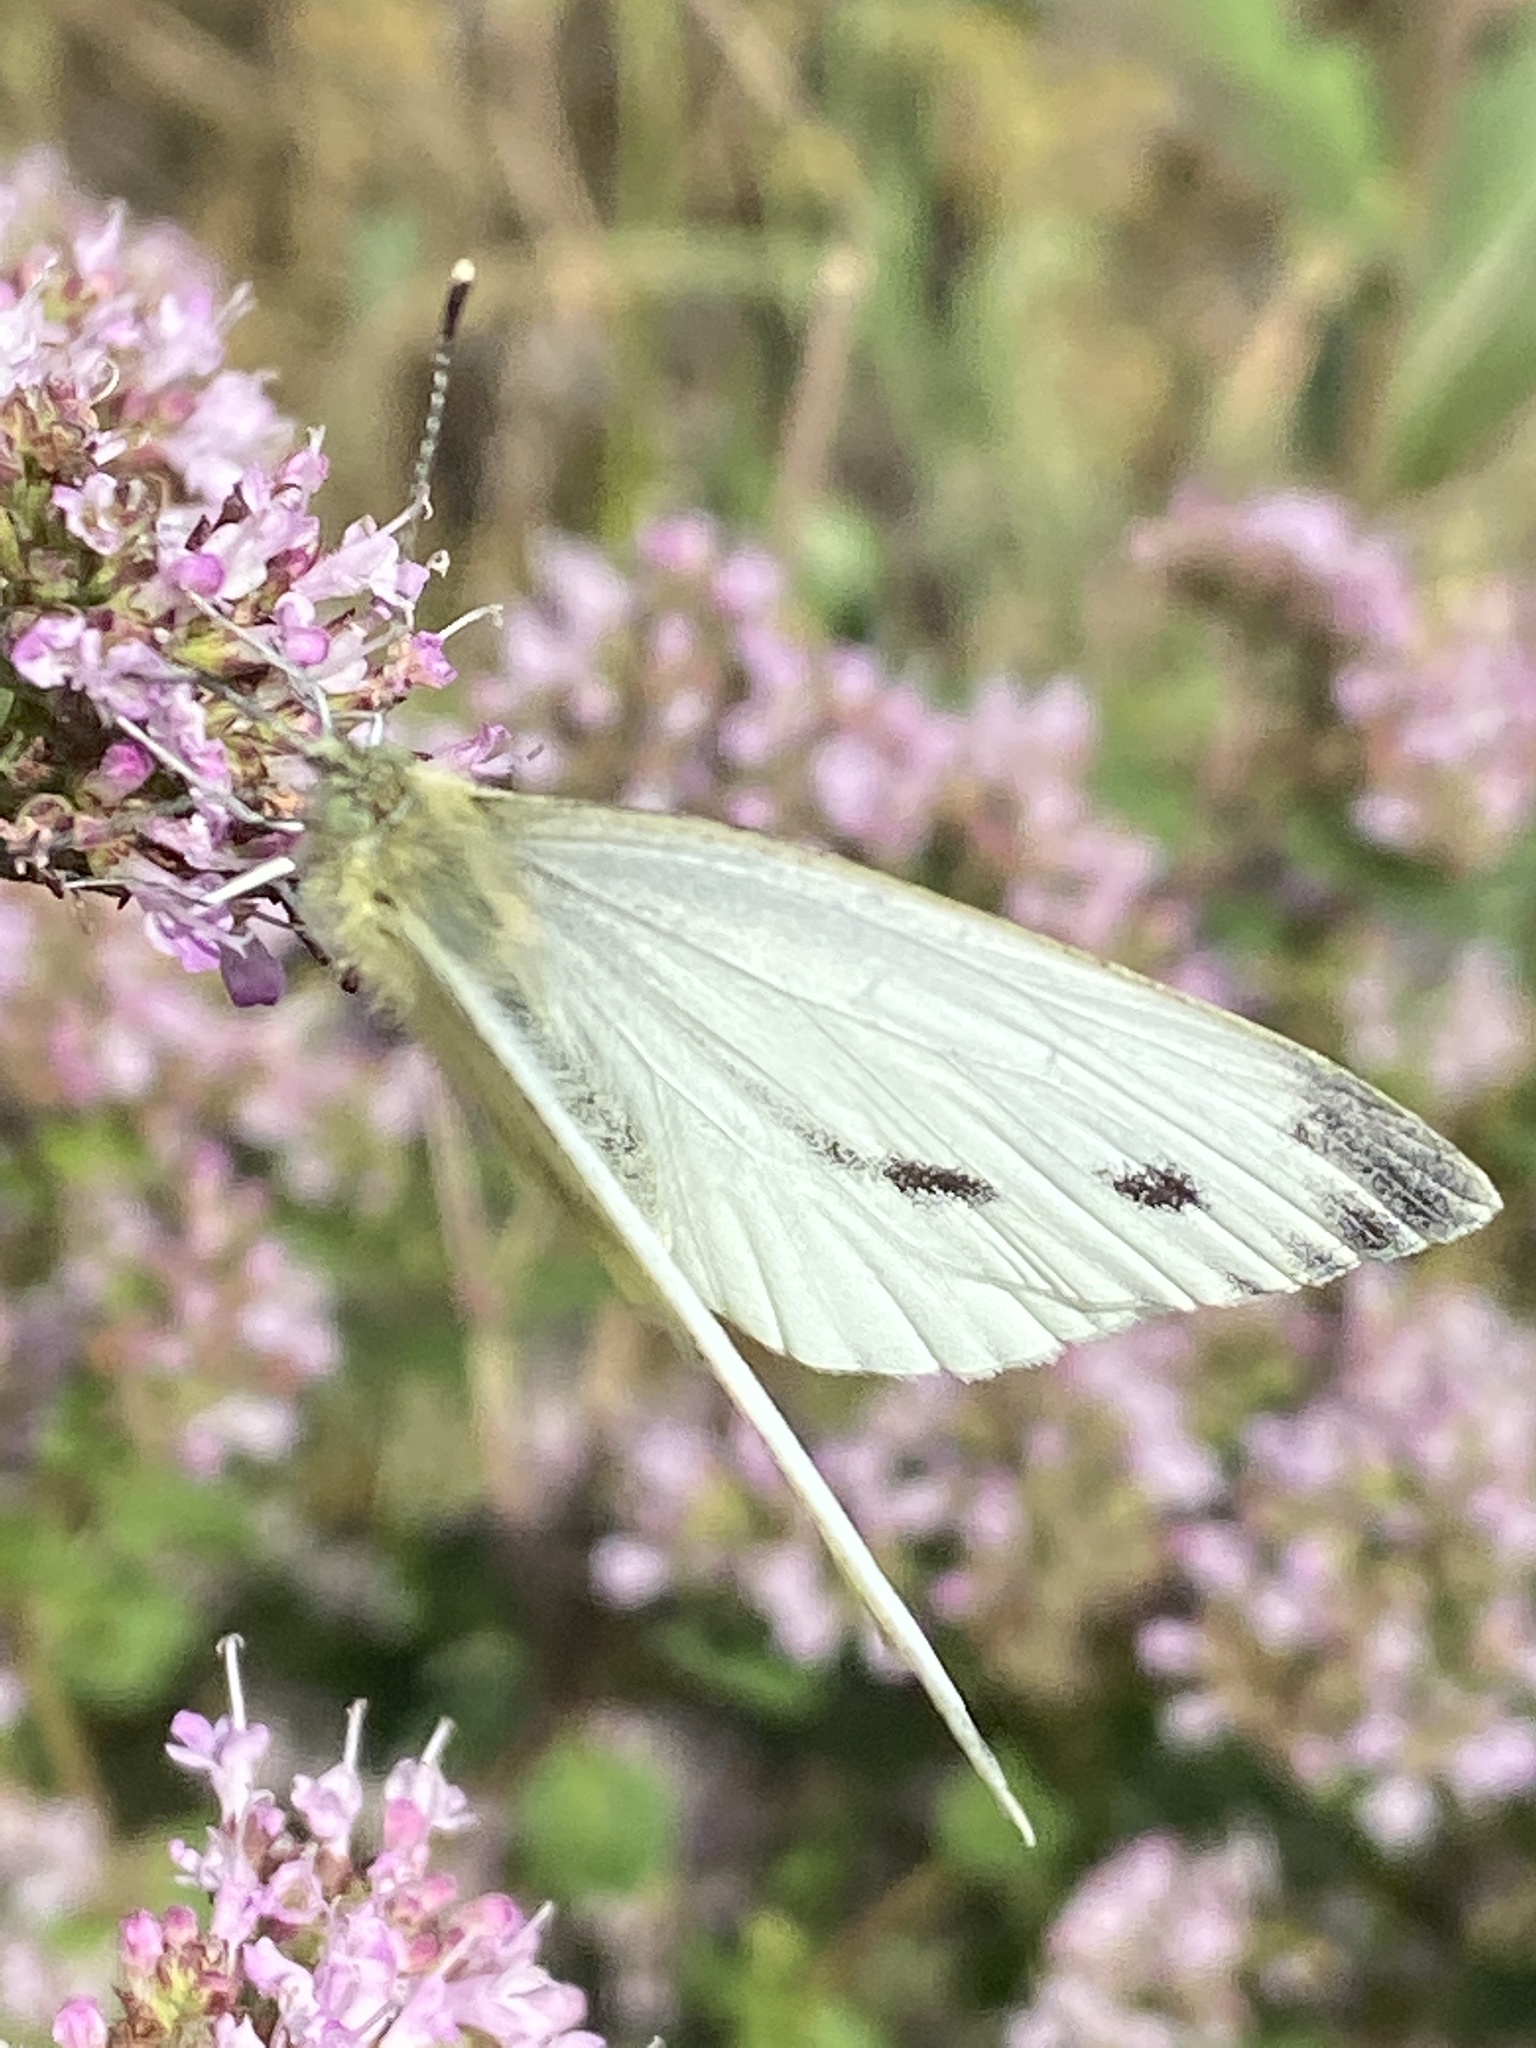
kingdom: Animalia
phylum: Arthropoda
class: Insecta
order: Lepidoptera
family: Pieridae
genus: Pieris
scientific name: Pieris napi
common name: Green-veined white
